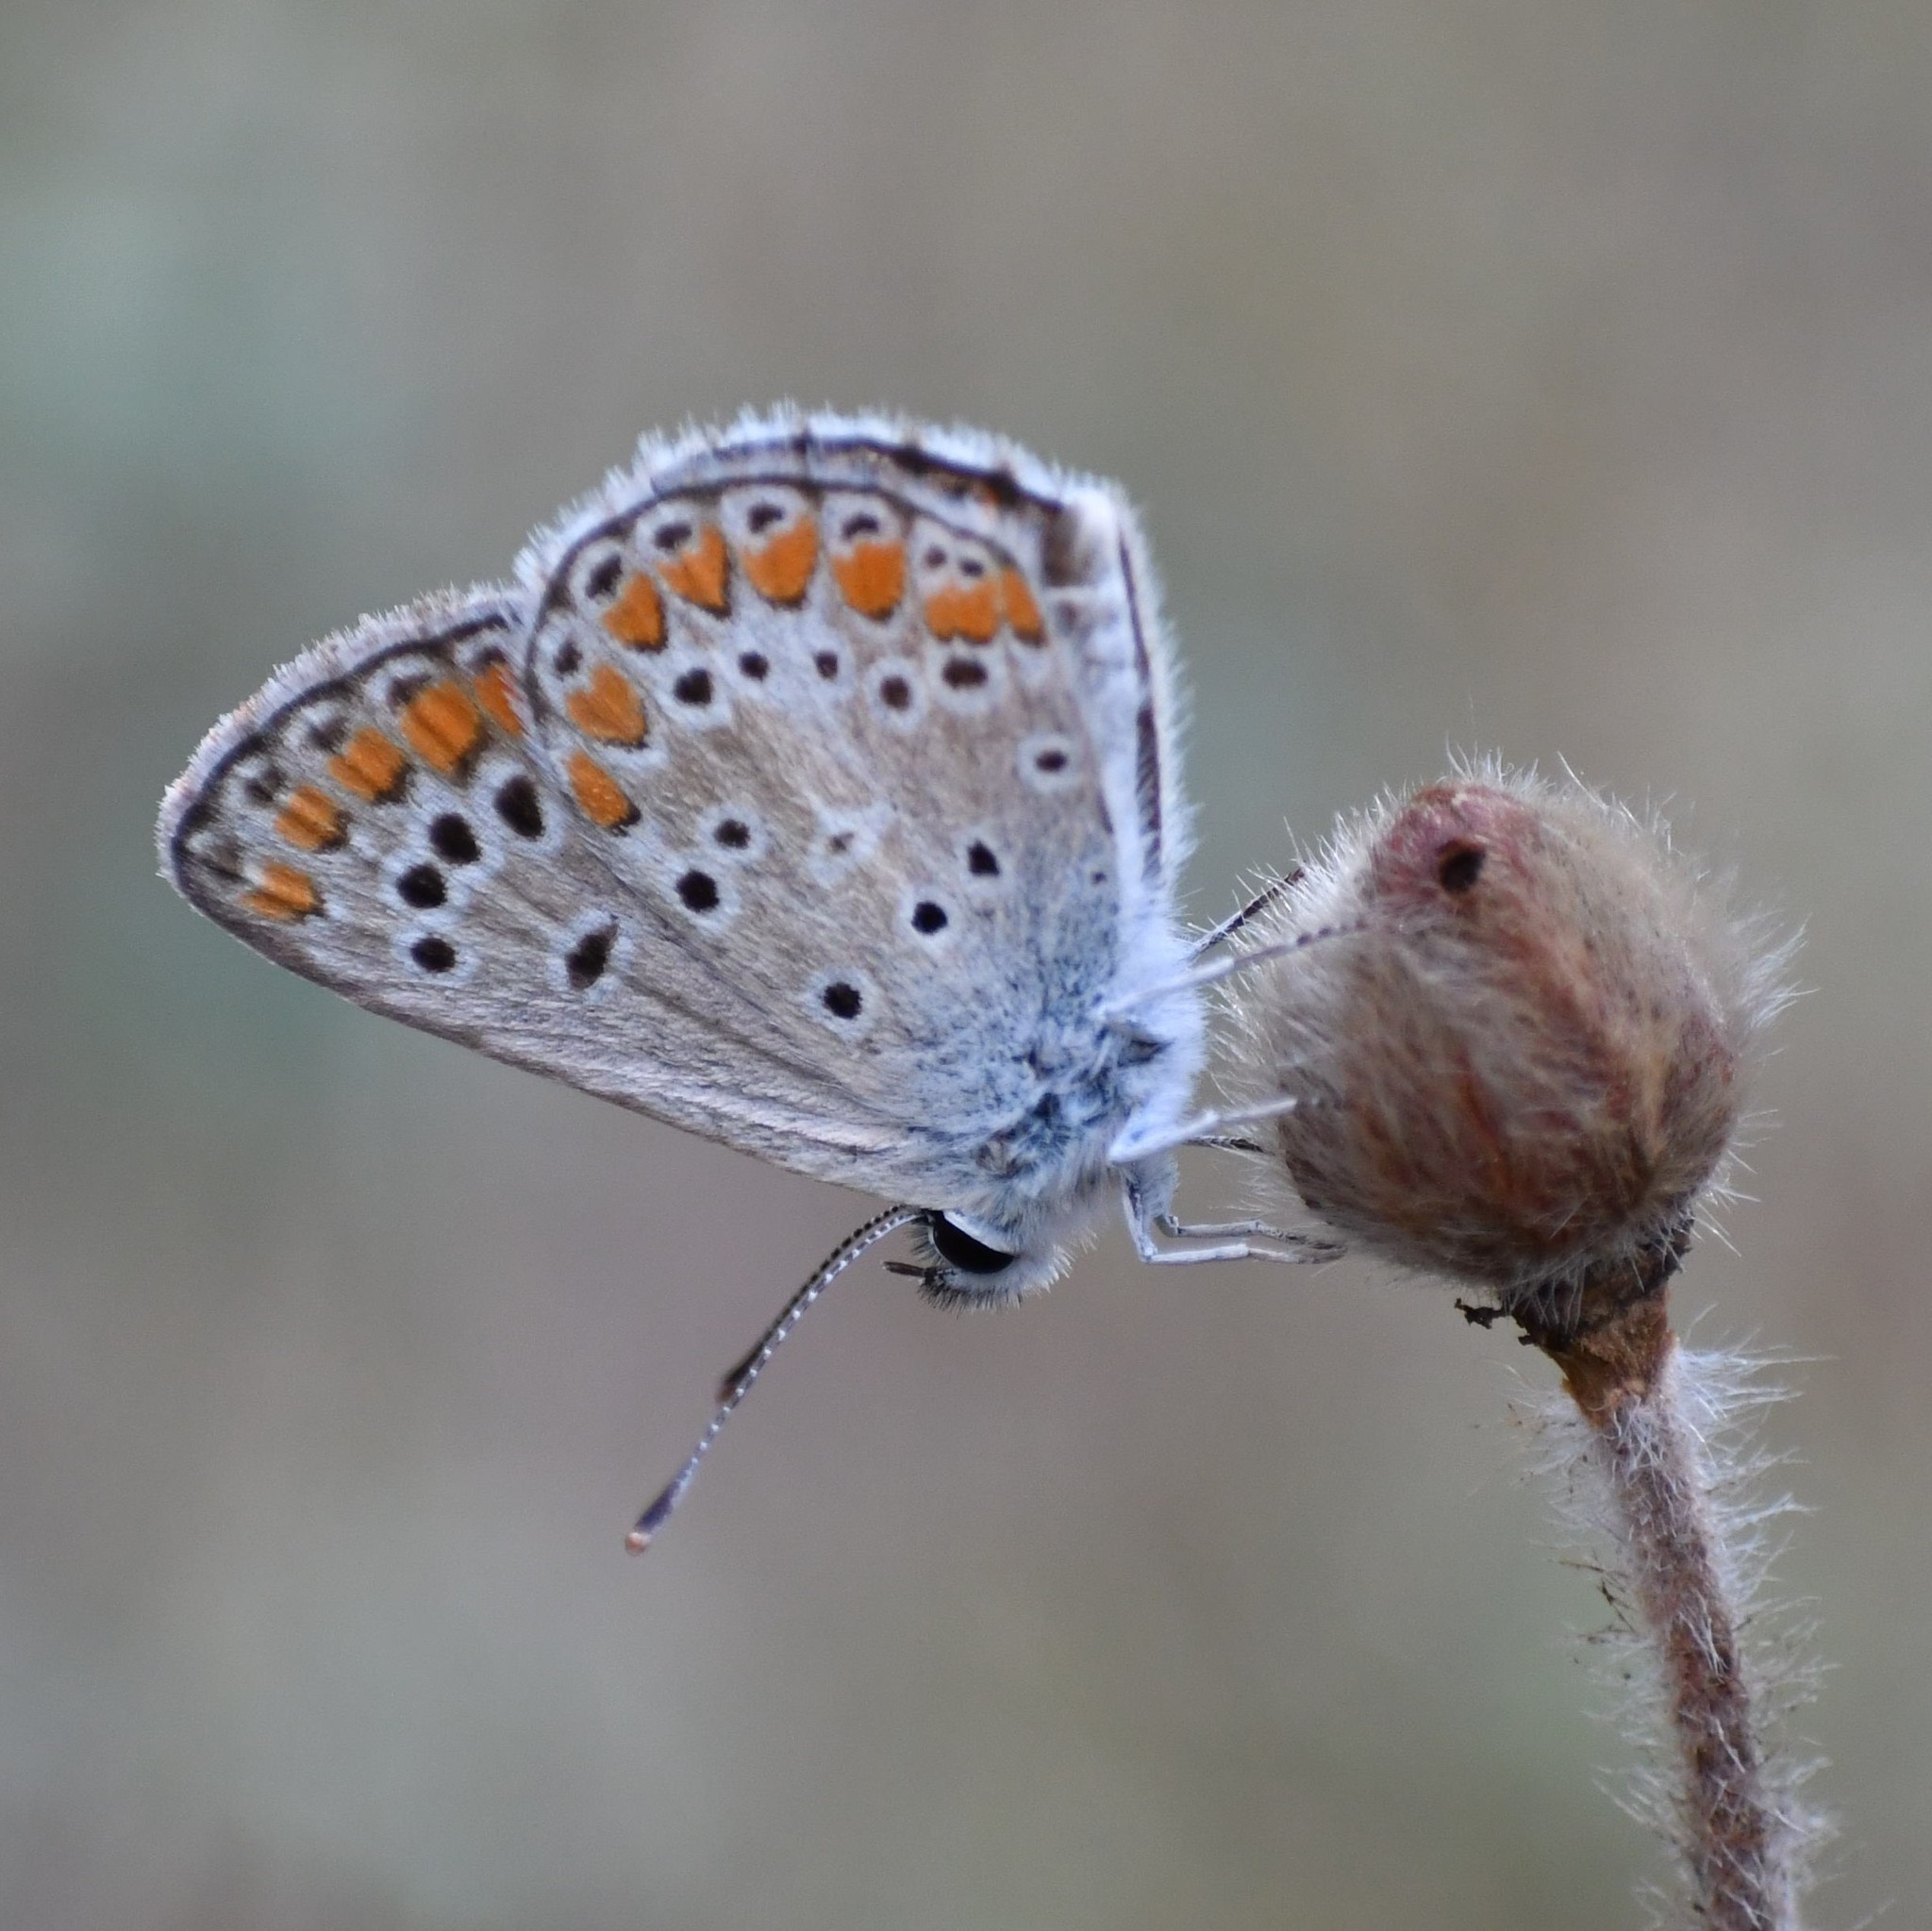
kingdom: Animalia
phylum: Arthropoda
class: Insecta
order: Lepidoptera
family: Lycaenidae
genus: Aricia
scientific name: Aricia agestis
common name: Brown argus
